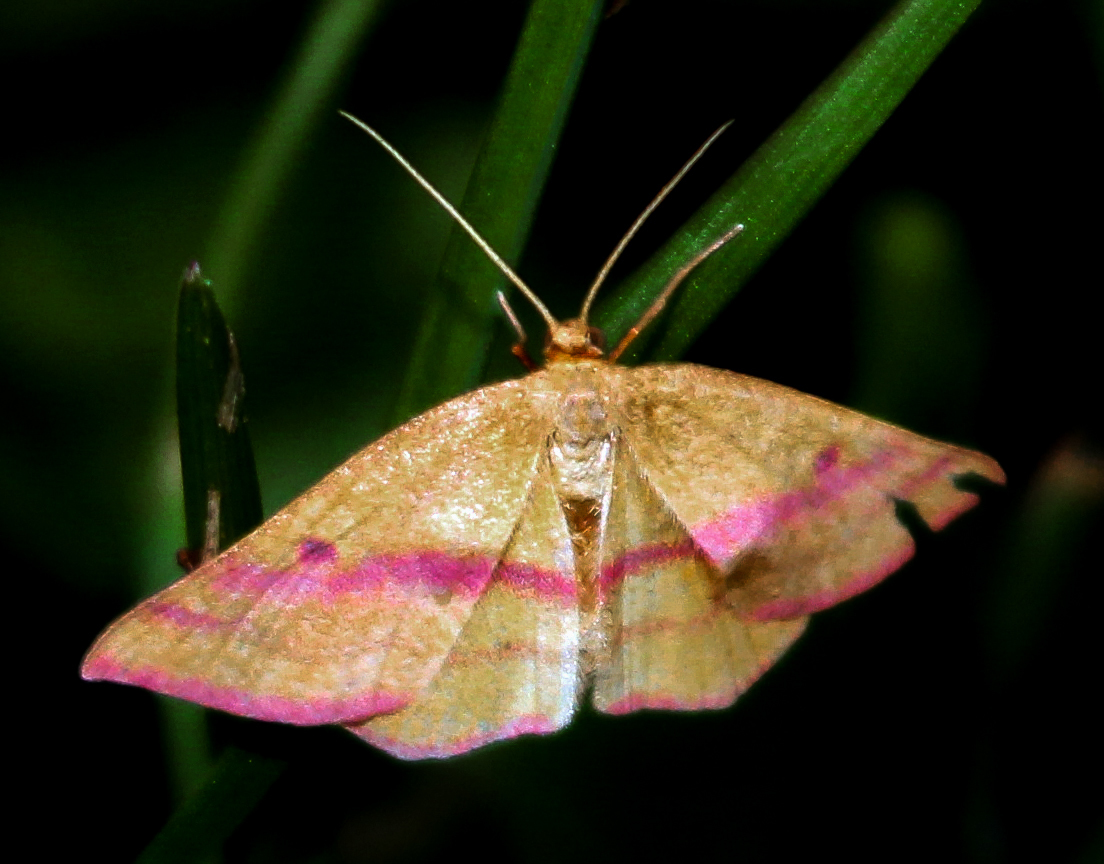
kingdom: Animalia
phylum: Arthropoda
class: Insecta
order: Lepidoptera
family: Geometridae
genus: Haematopis
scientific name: Haematopis grataria
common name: Chickweed geometer
